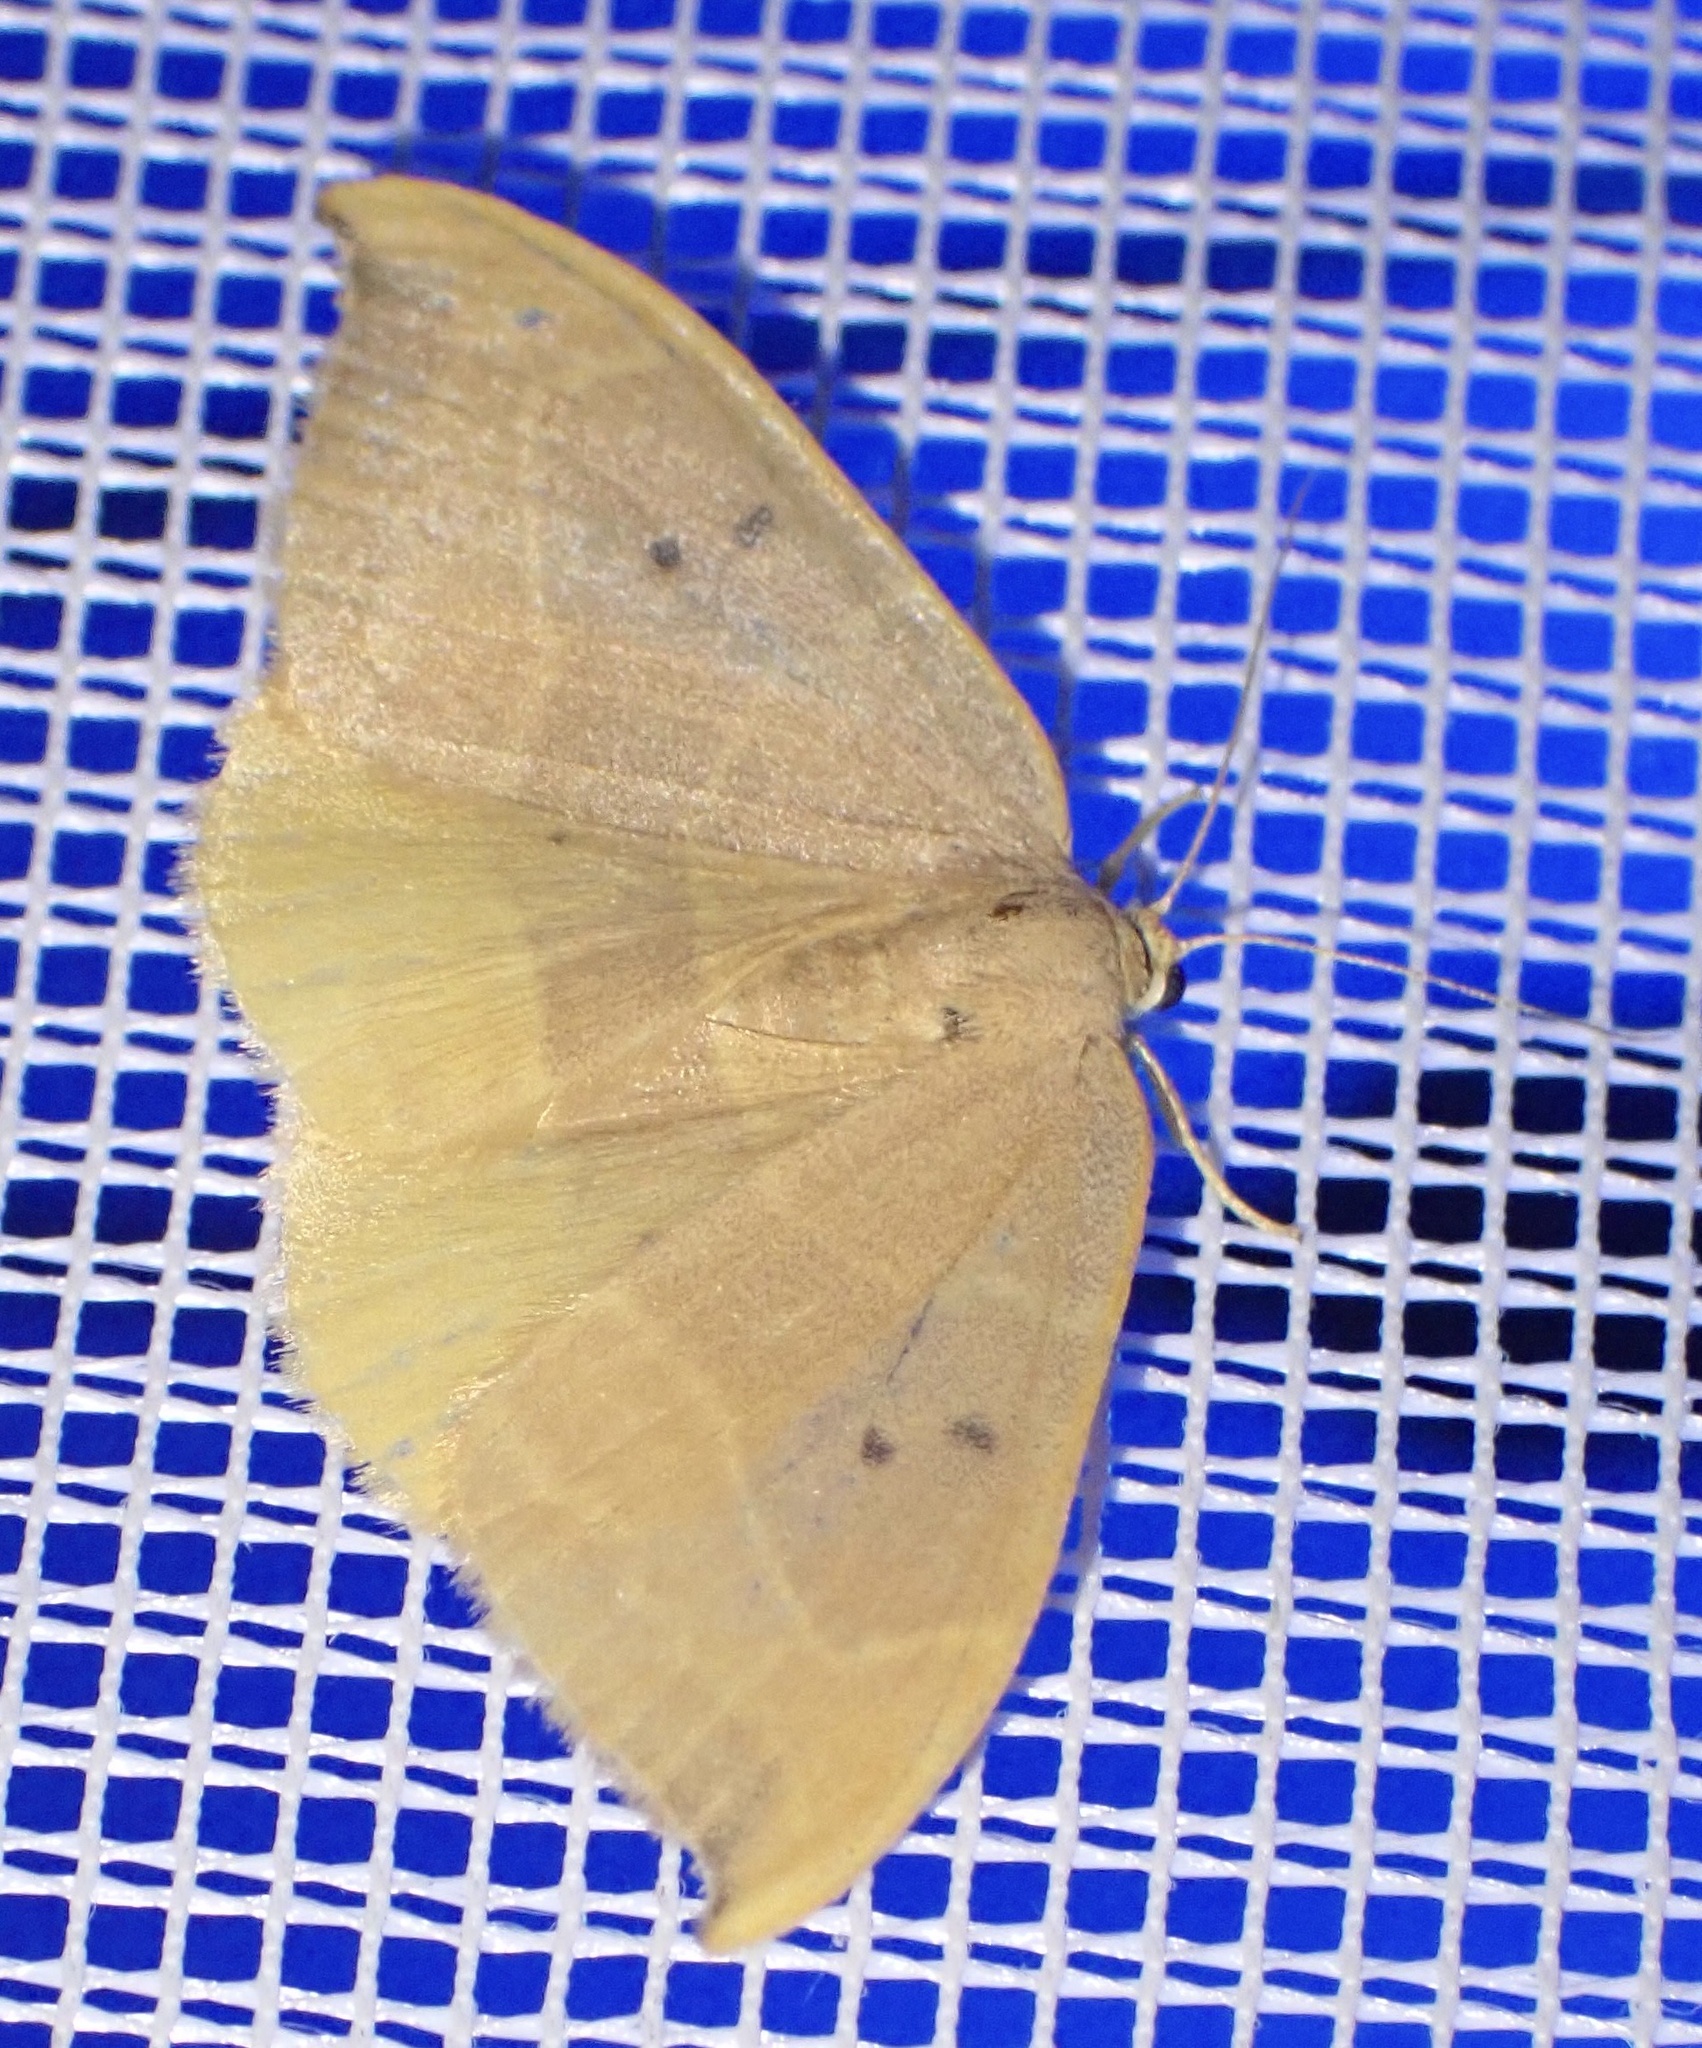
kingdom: Animalia
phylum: Arthropoda
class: Insecta
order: Lepidoptera
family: Drepanidae
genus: Watsonalla
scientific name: Watsonalla binaria
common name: Oak hook-tip
